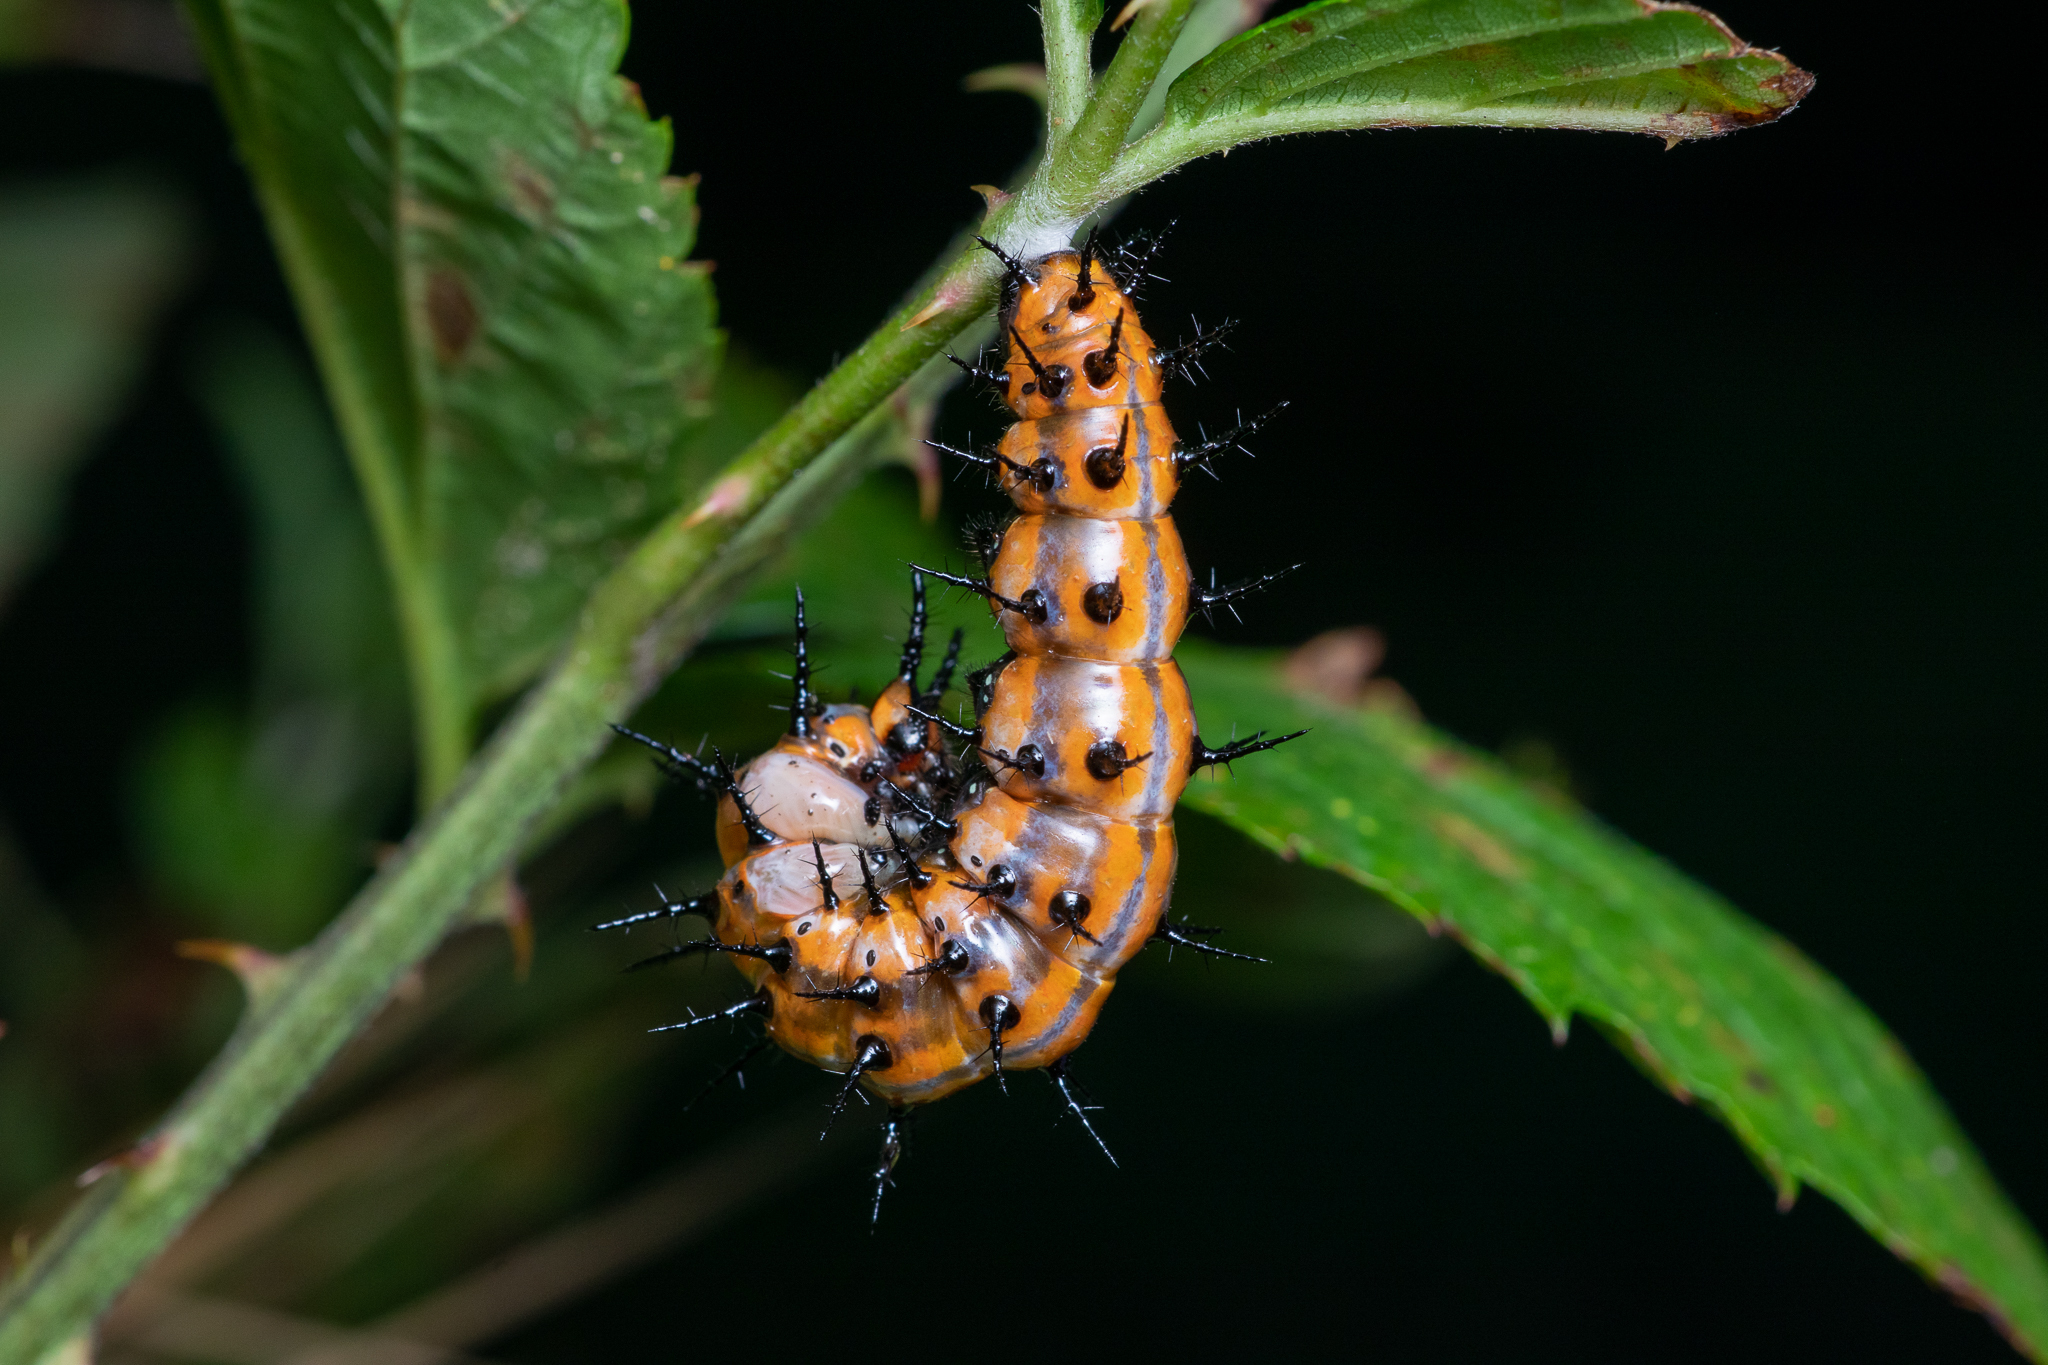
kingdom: Animalia
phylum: Arthropoda
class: Insecta
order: Lepidoptera
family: Nymphalidae
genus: Dione
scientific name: Dione vanillae
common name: Gulf fritillary
